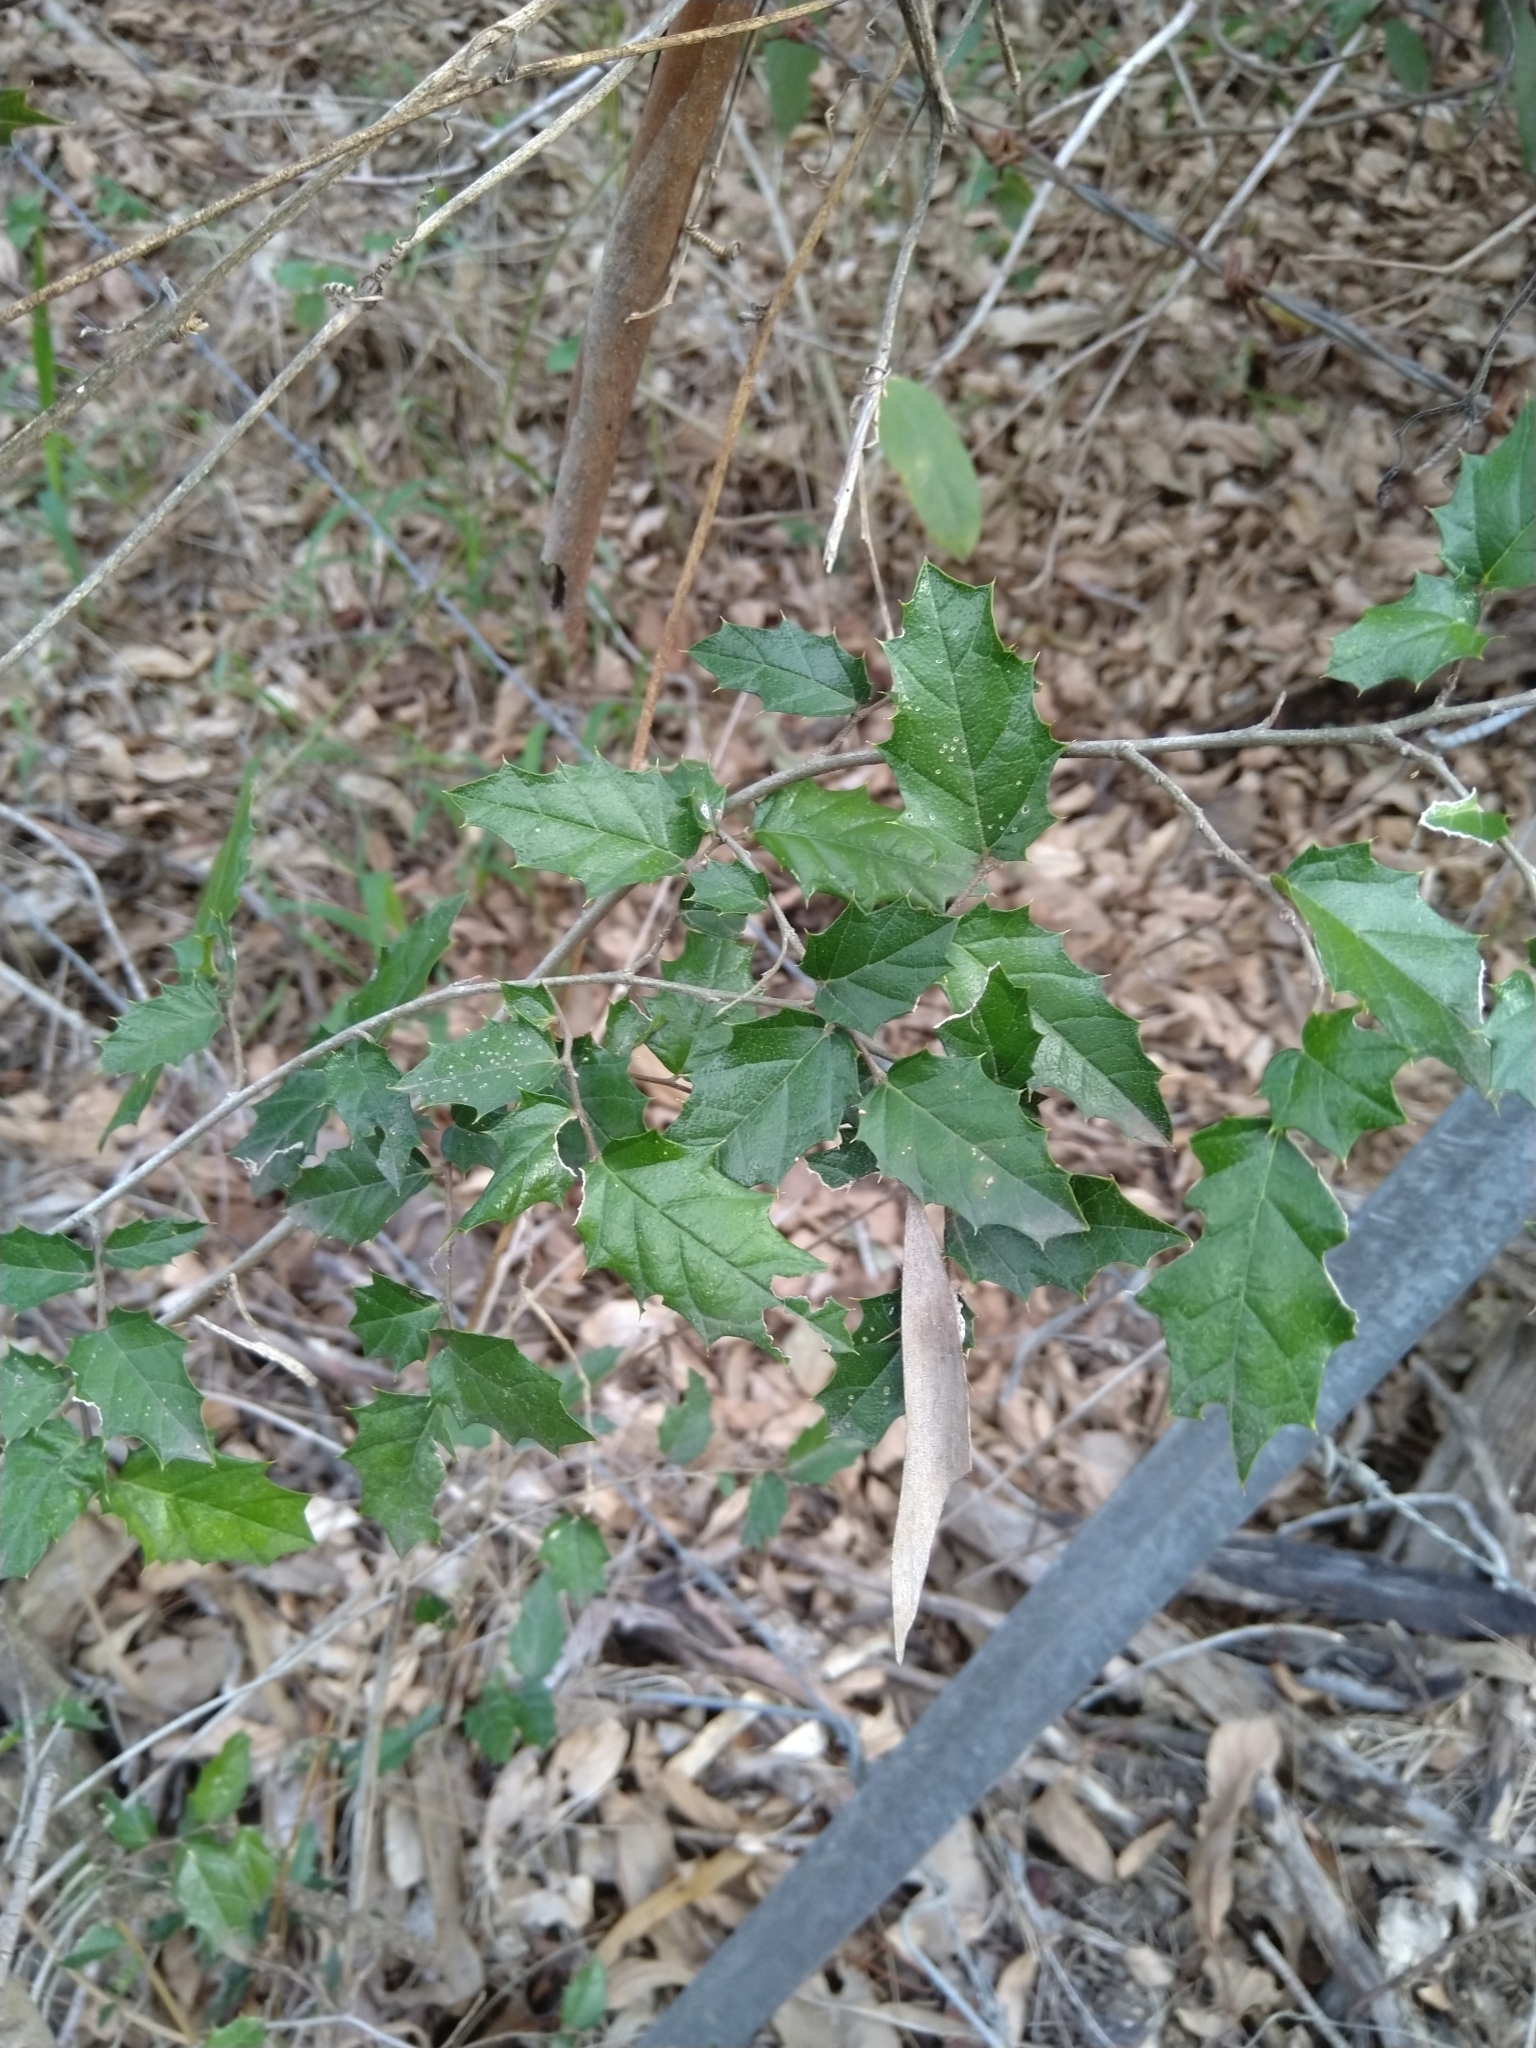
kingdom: Plantae
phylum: Tracheophyta
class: Magnoliopsida
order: Rosales
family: Cannabaceae
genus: Aphananthe
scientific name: Aphananthe philippinensis
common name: Wild holly
